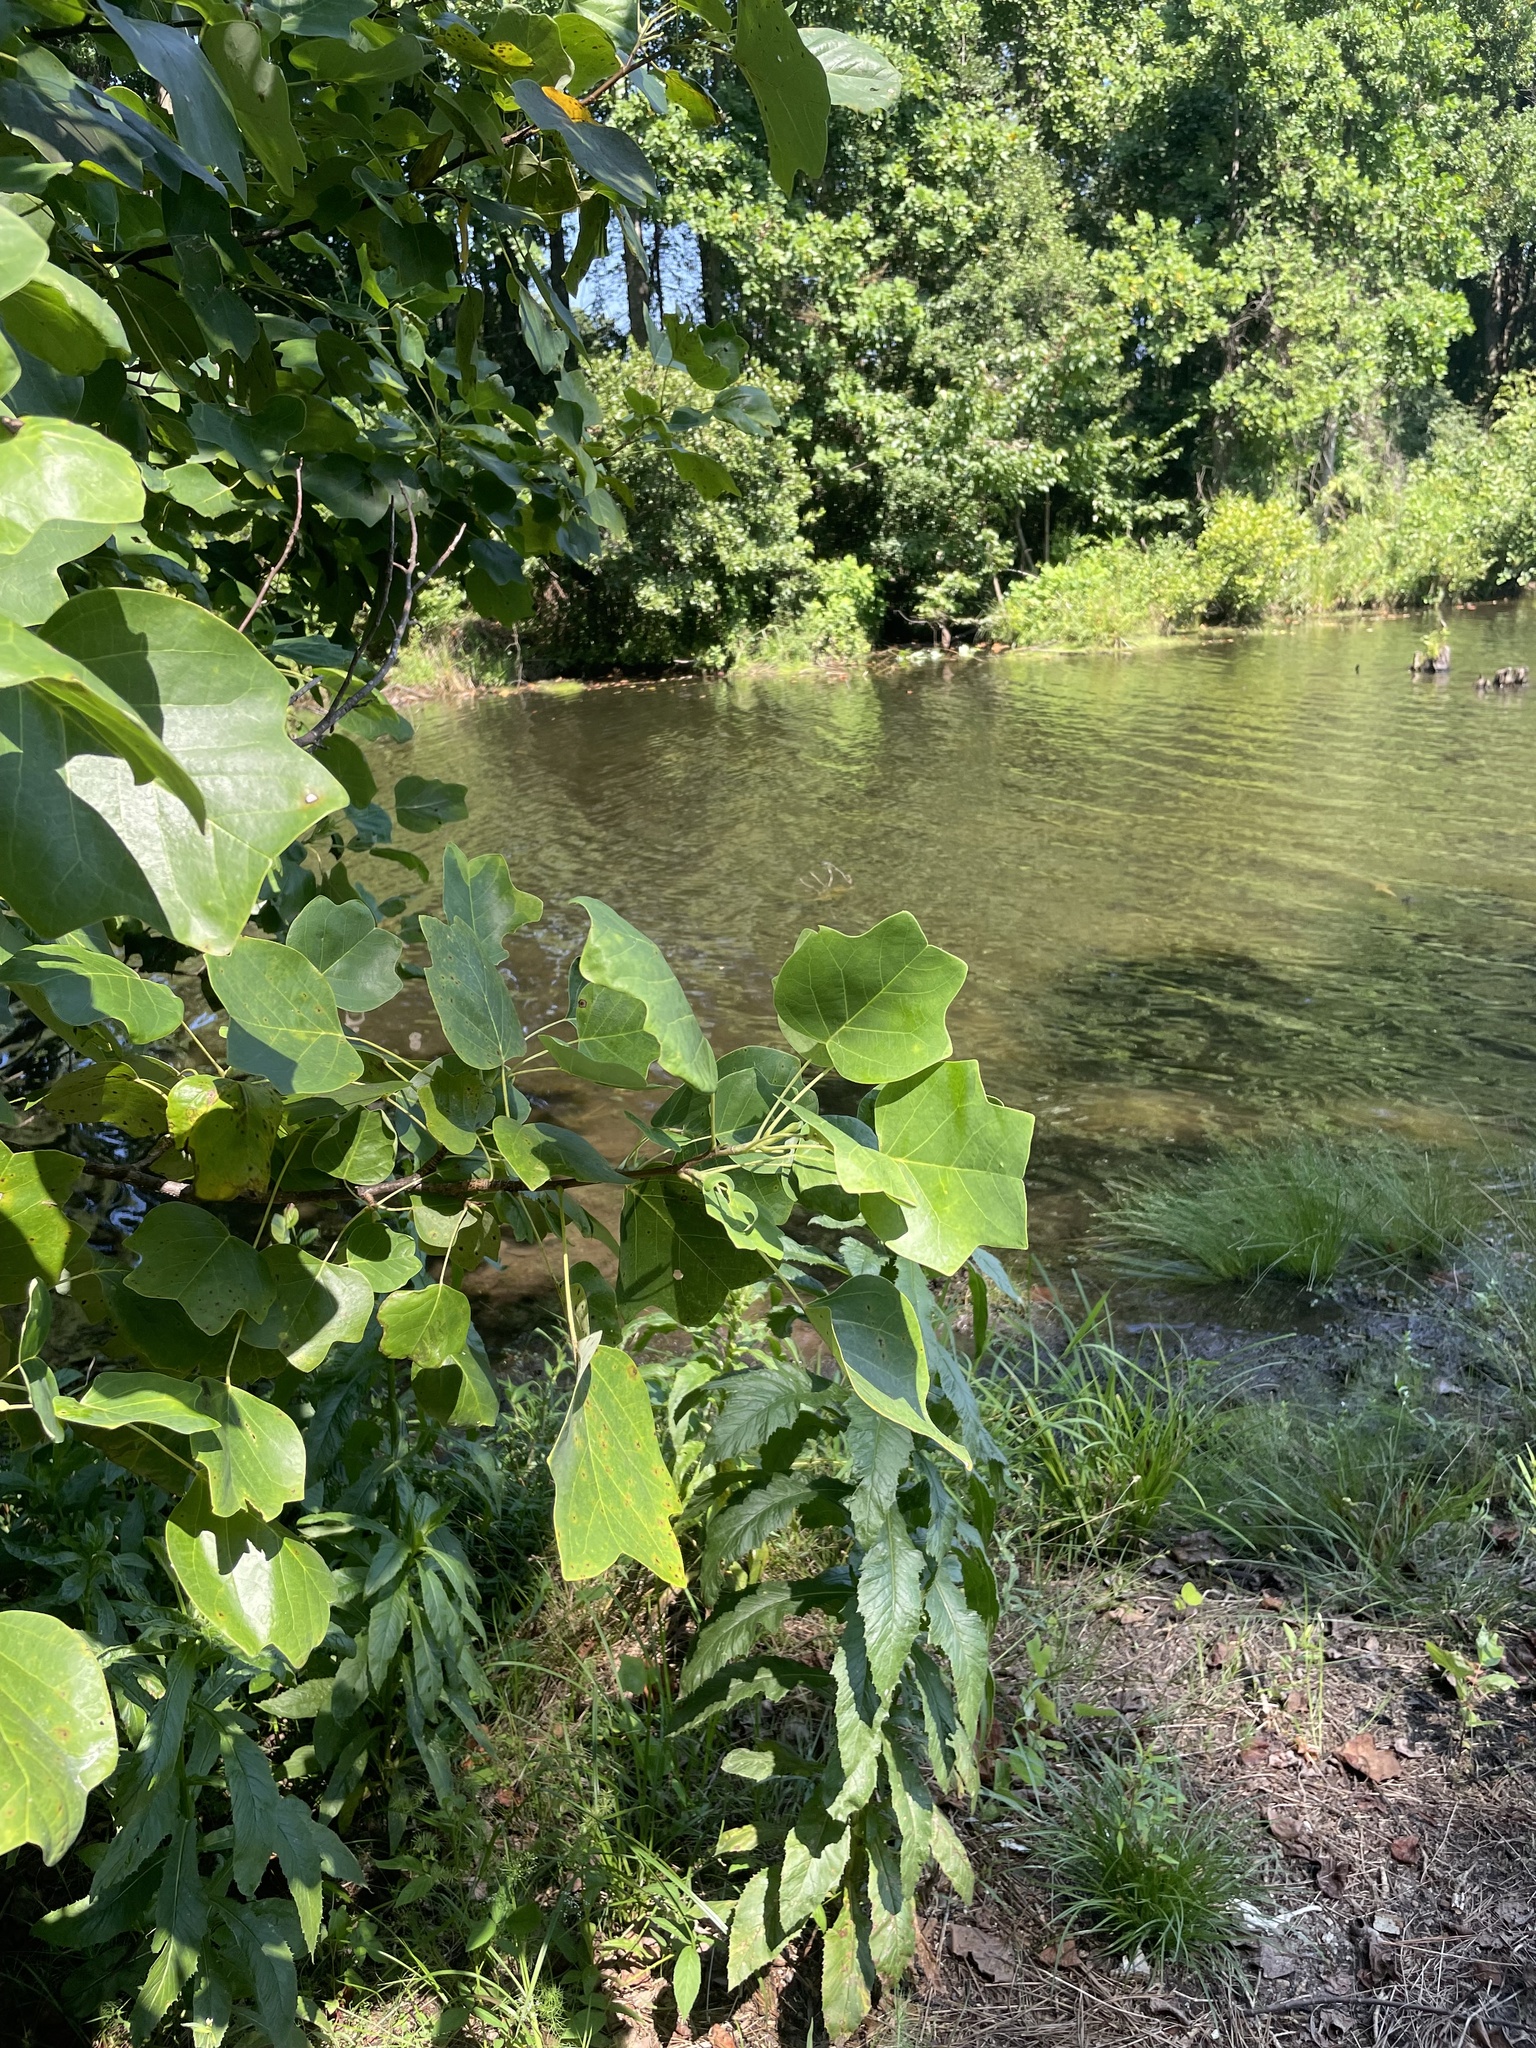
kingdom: Plantae
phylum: Tracheophyta
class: Magnoliopsida
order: Magnoliales
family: Magnoliaceae
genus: Liriodendron
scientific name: Liriodendron tulipifera
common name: Tulip tree
